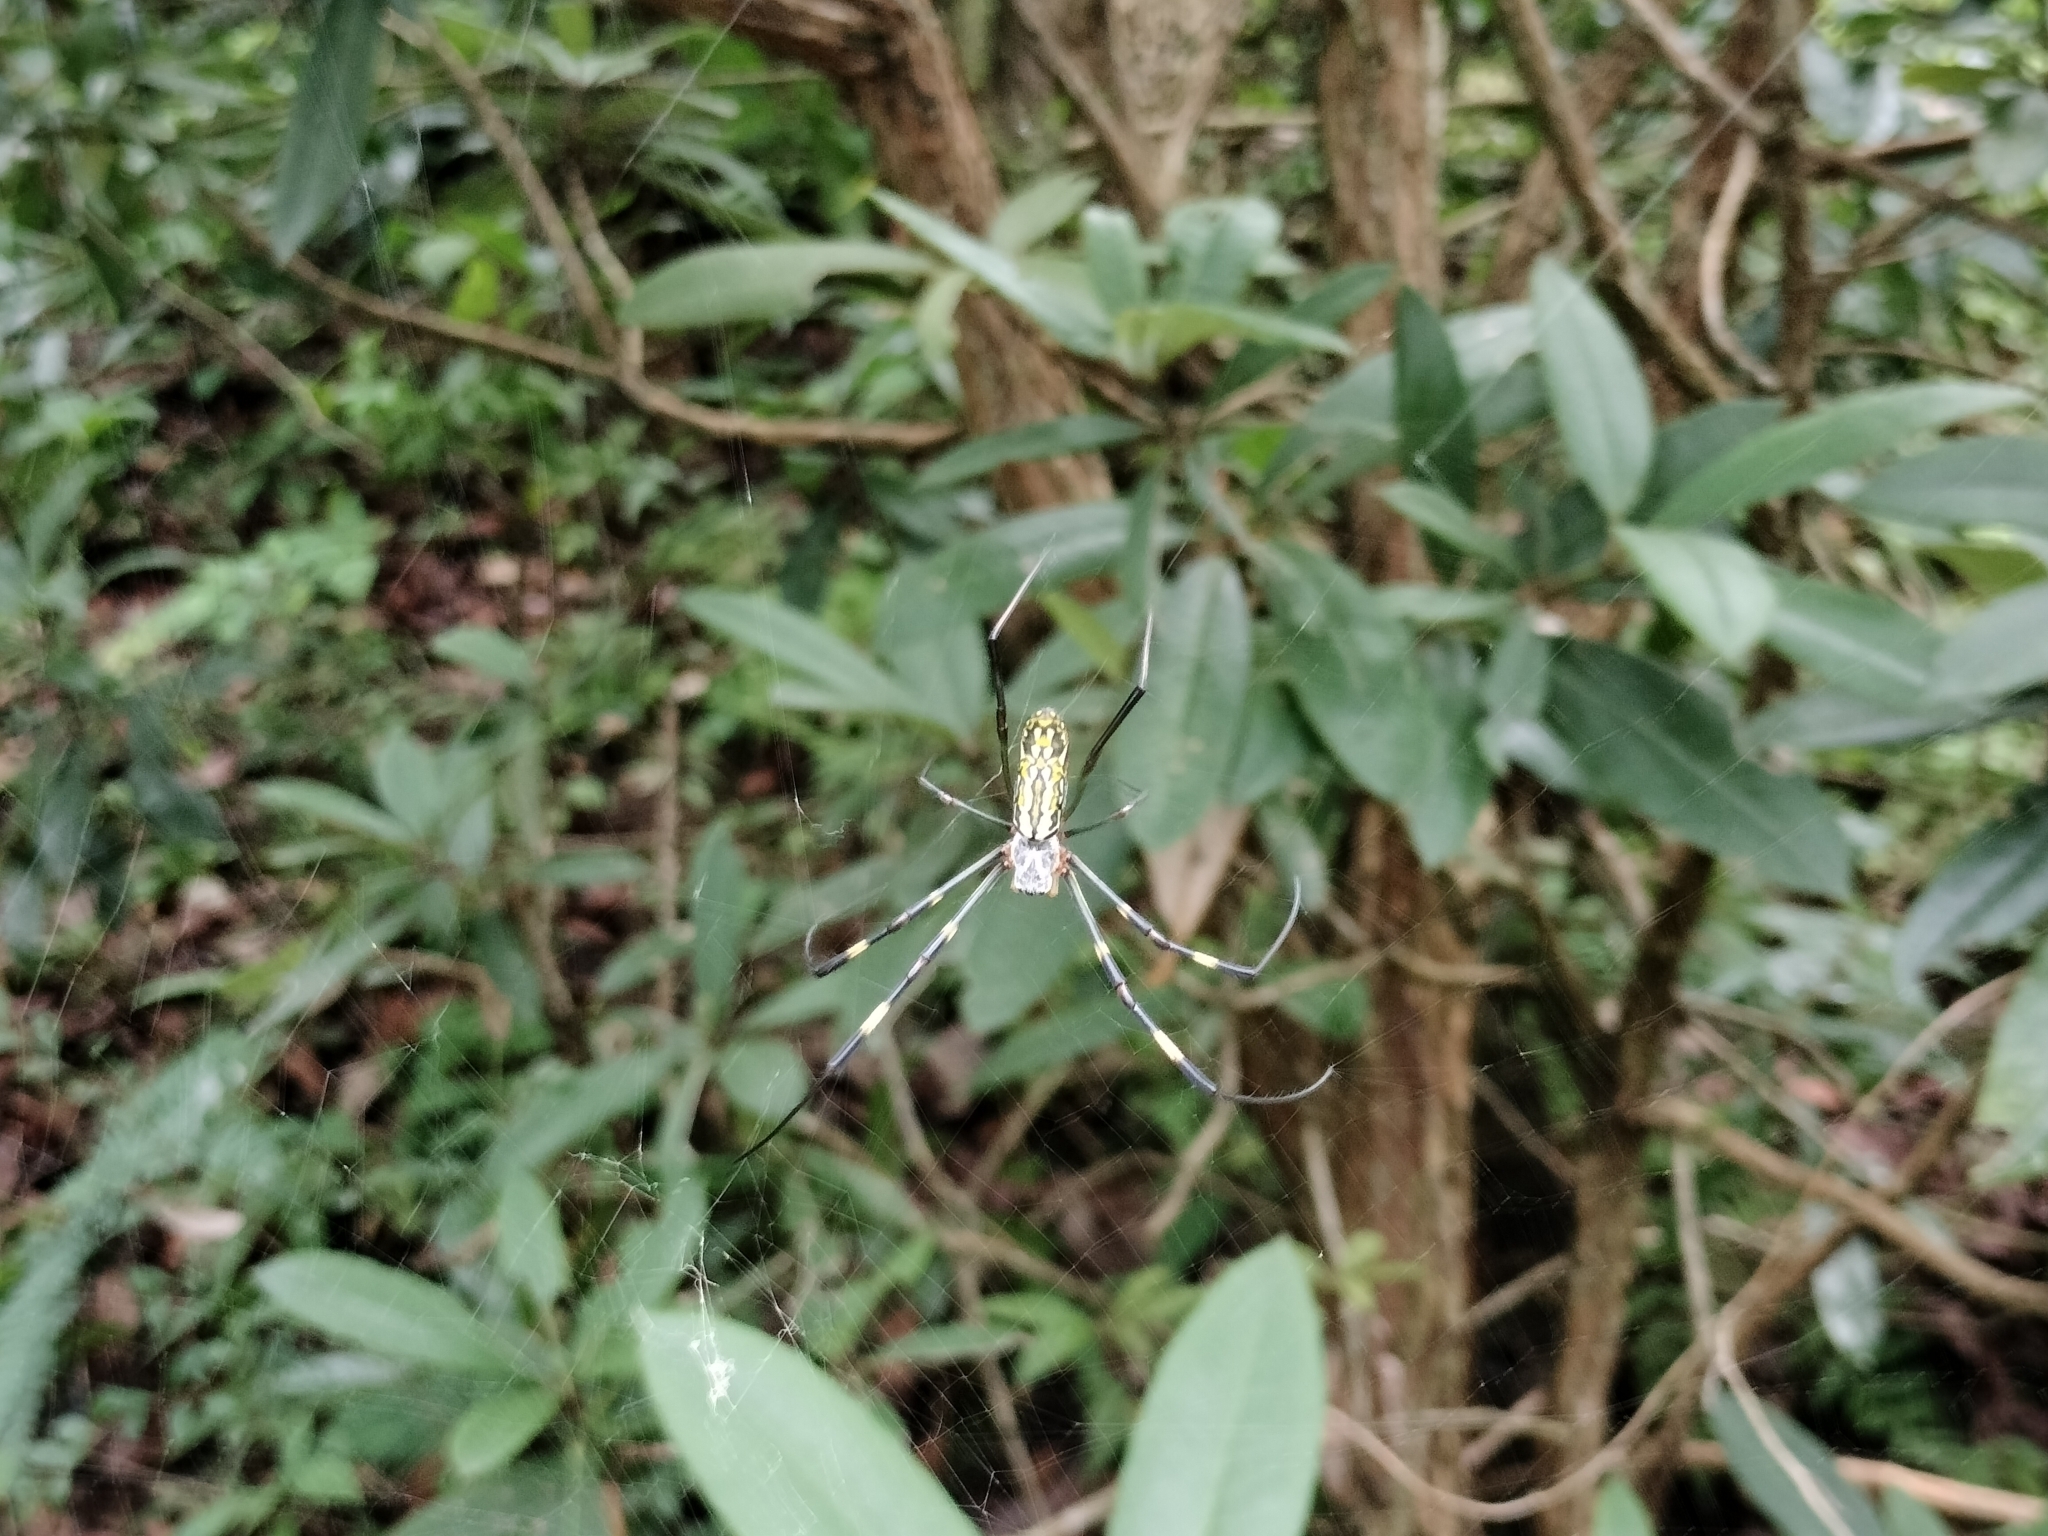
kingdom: Animalia
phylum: Arthropoda
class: Arachnida
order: Araneae
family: Araneidae
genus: Trichonephila
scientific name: Trichonephila clavata
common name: Jorō spider
